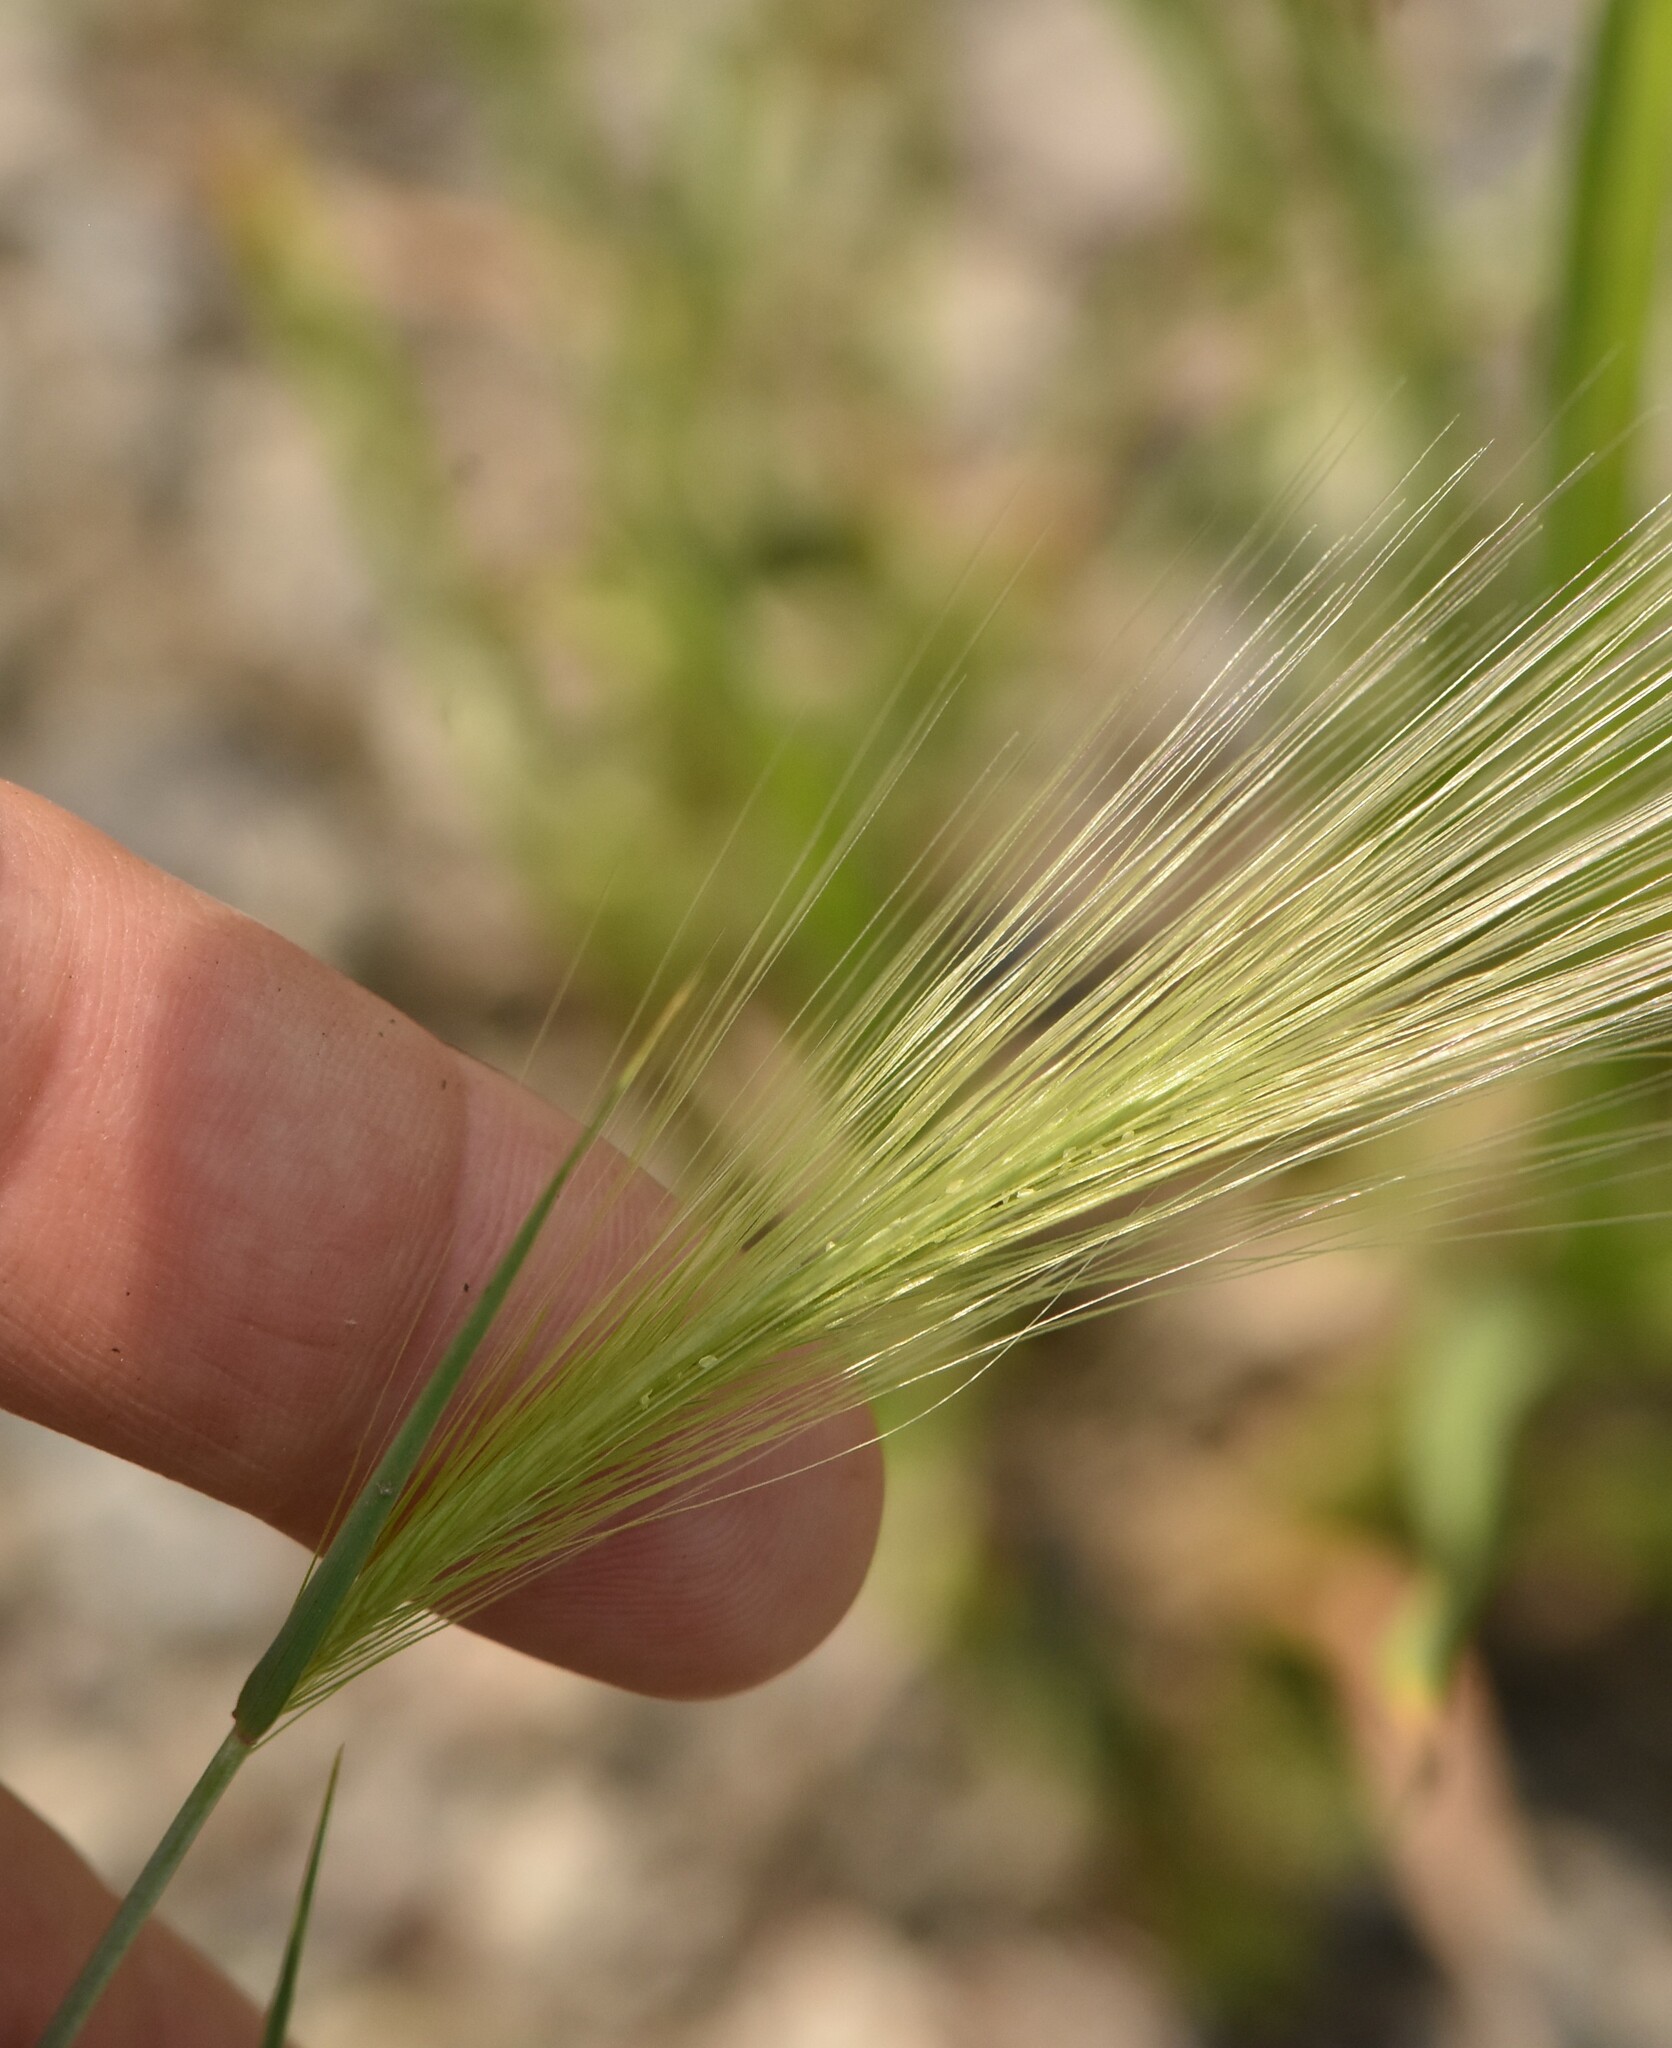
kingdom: Plantae
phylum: Tracheophyta
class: Liliopsida
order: Poales
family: Poaceae
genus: Hordeum
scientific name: Hordeum jubatum
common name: Foxtail barley
